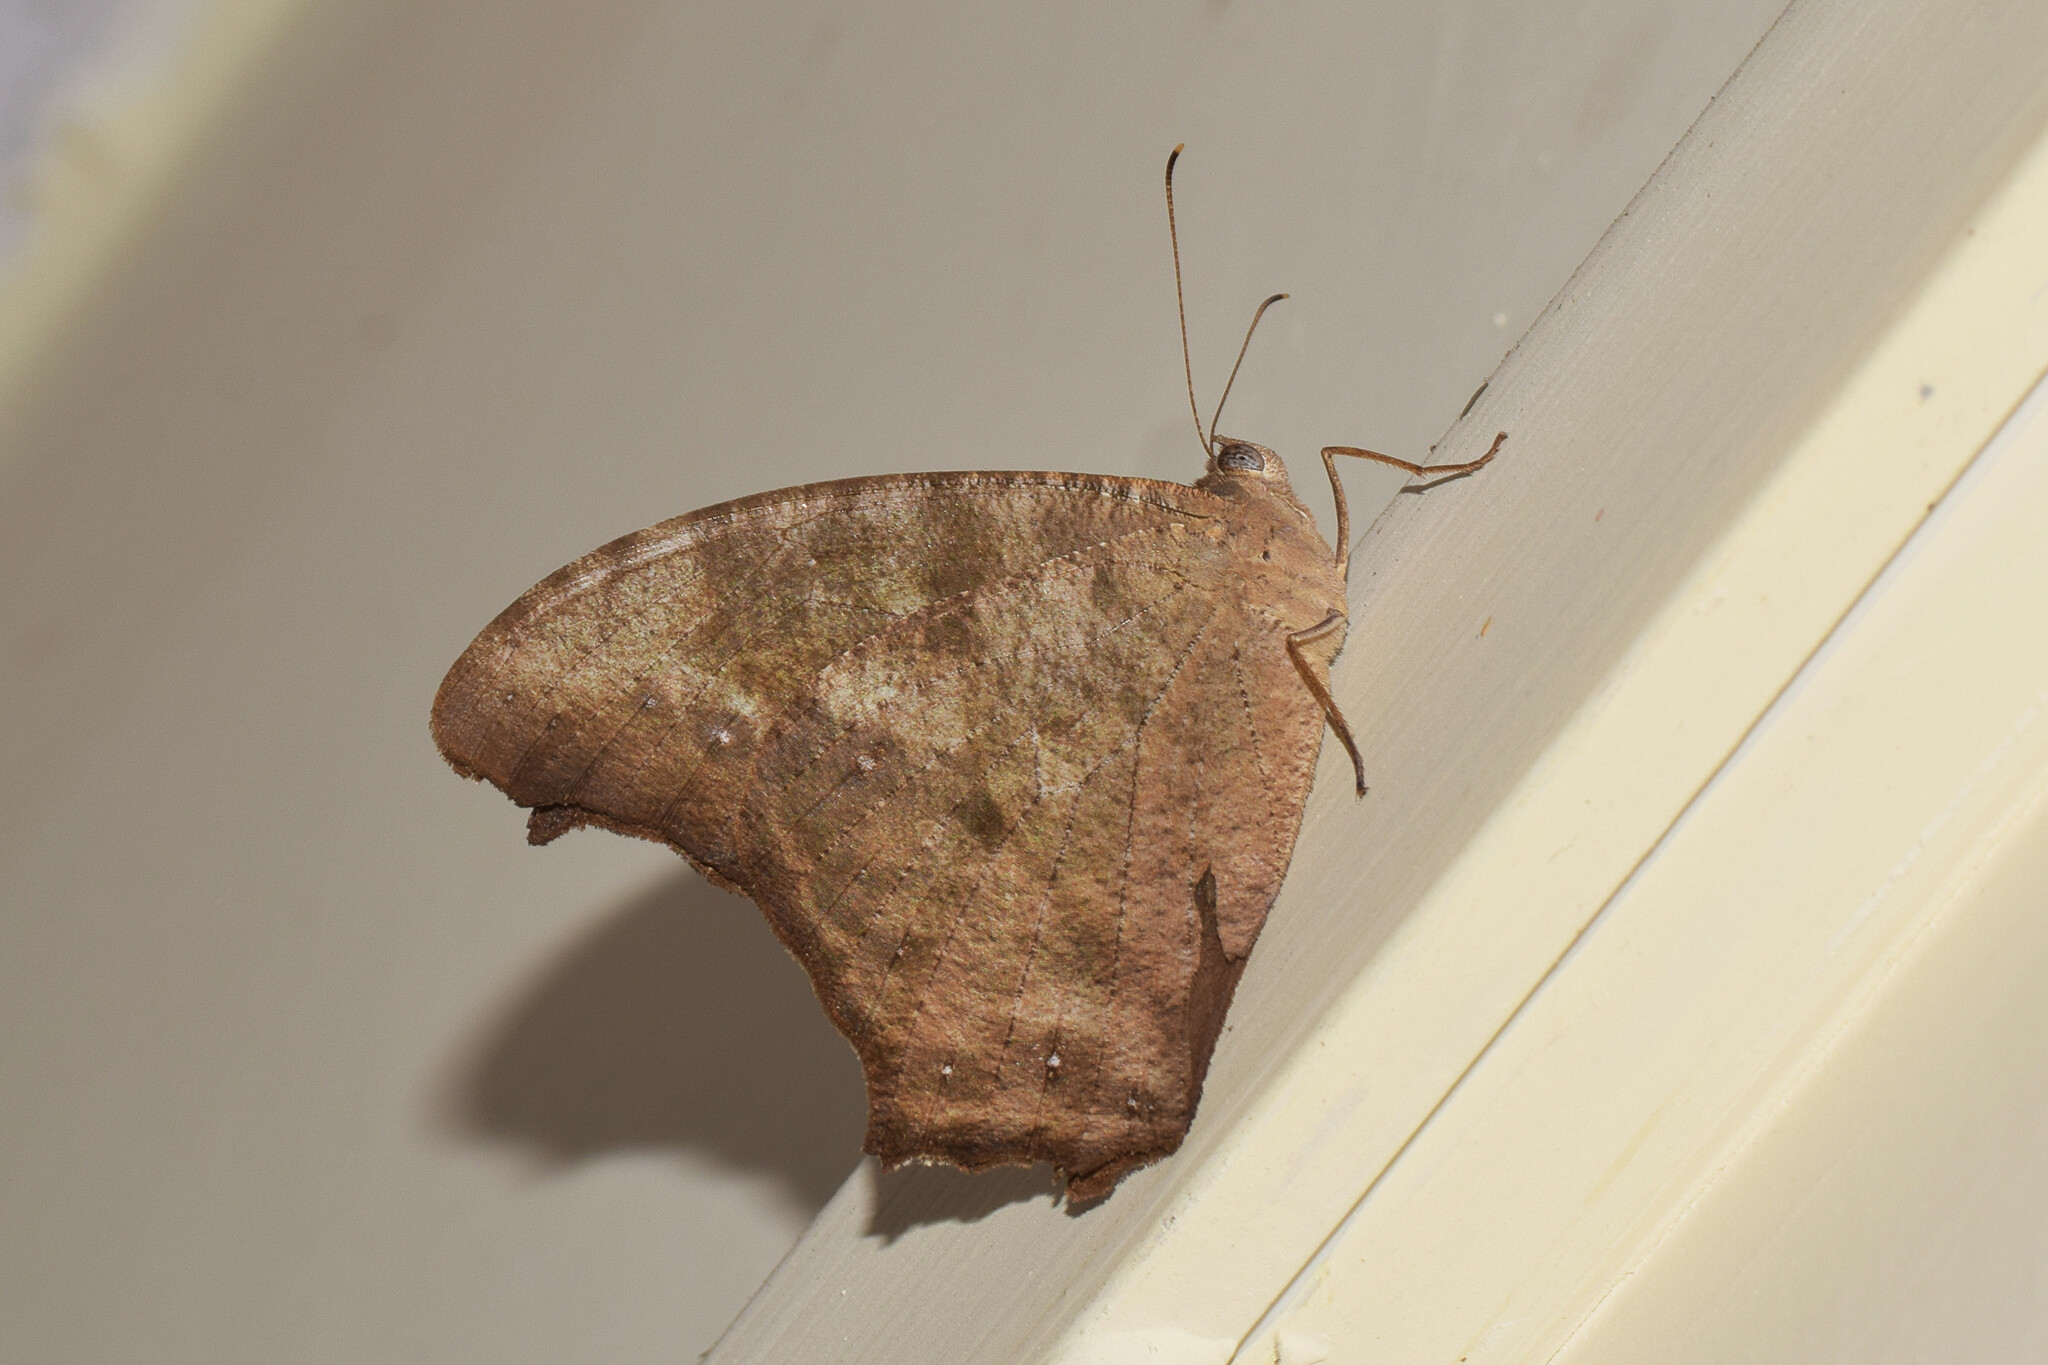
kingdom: Animalia
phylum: Arthropoda
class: Insecta
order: Lepidoptera
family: Nymphalidae
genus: Melanitis
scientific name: Melanitis leda
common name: Twilight brown
